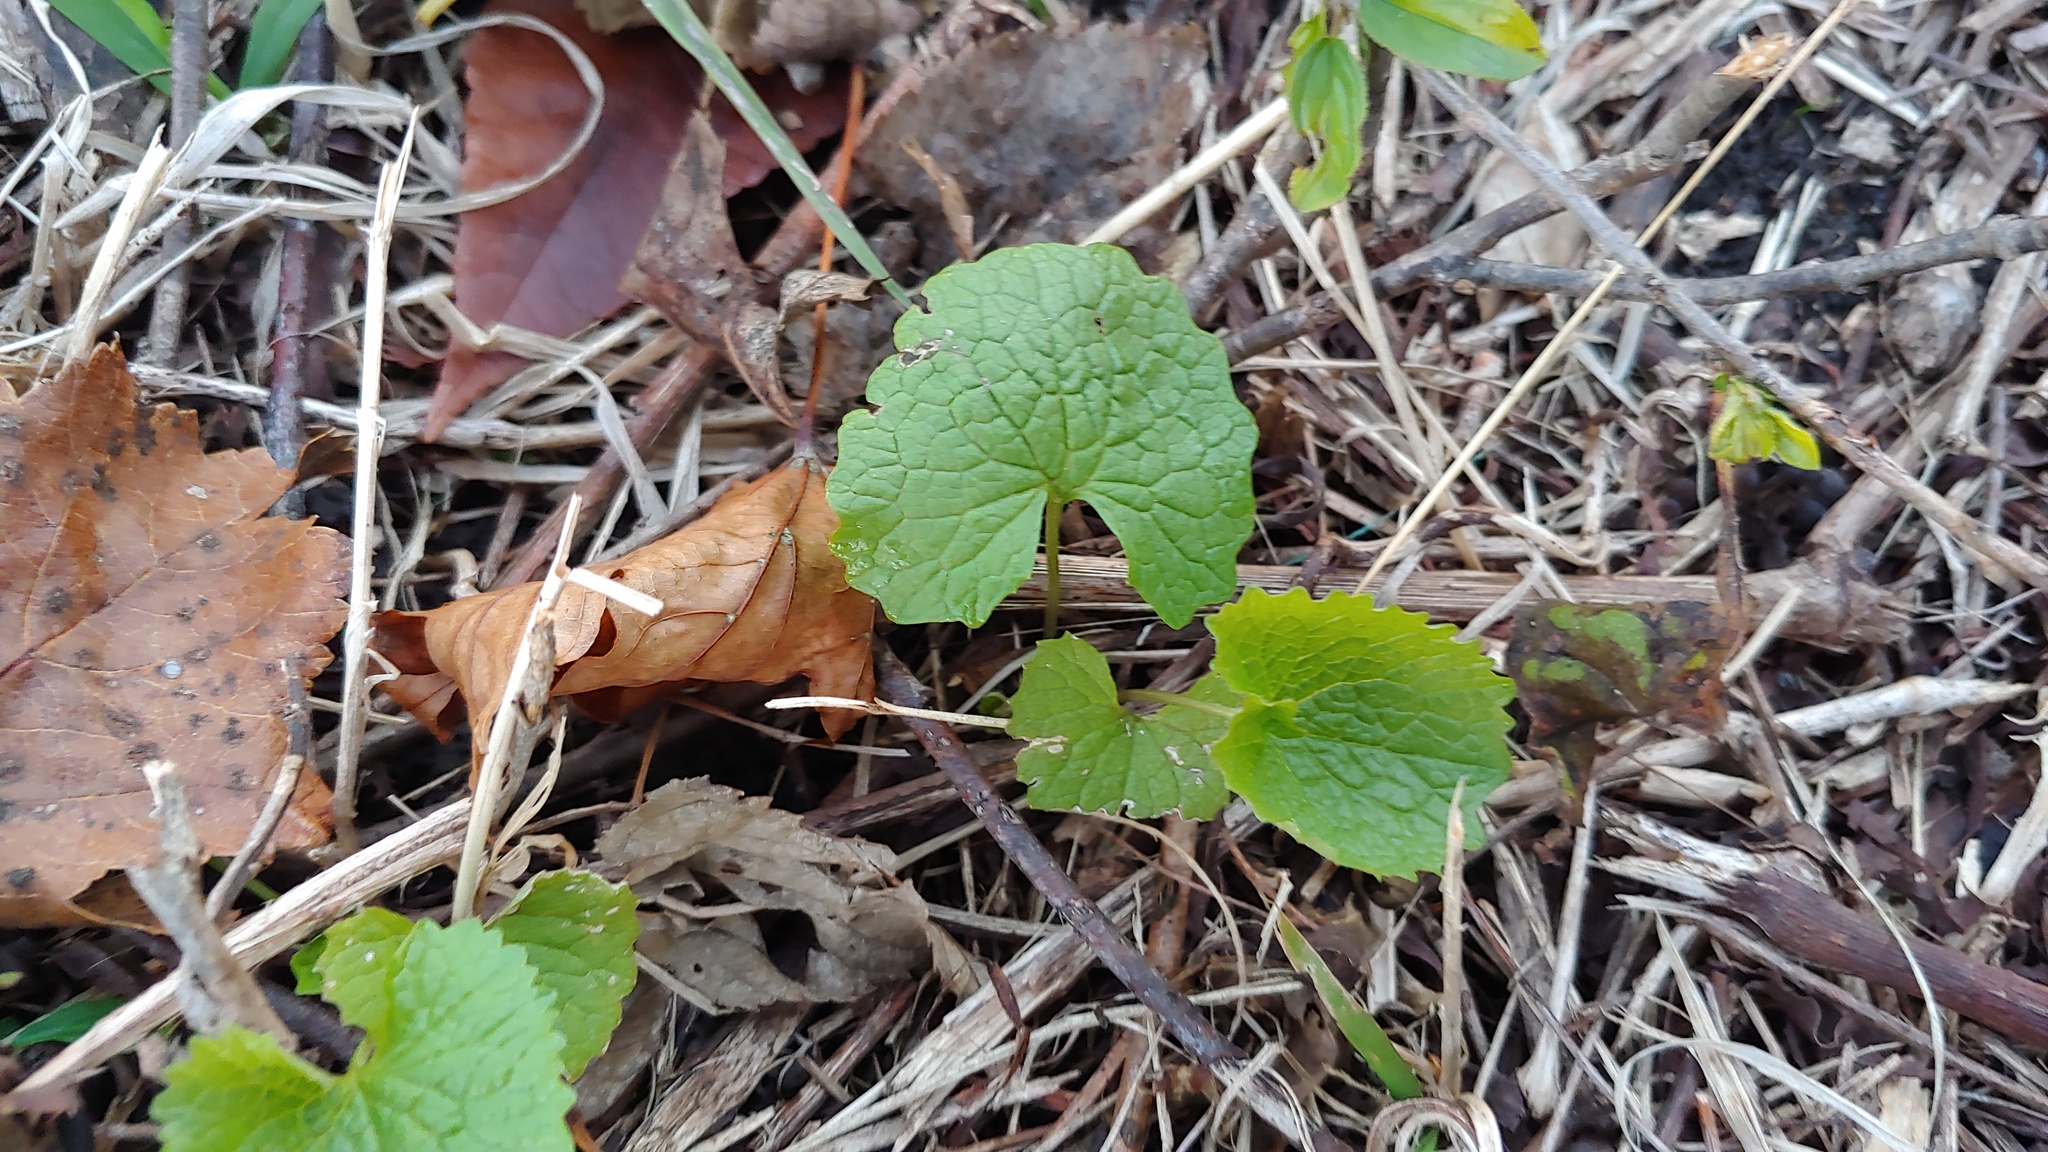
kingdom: Plantae
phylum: Tracheophyta
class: Magnoliopsida
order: Brassicales
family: Brassicaceae
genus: Alliaria
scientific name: Alliaria petiolata
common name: Garlic mustard
